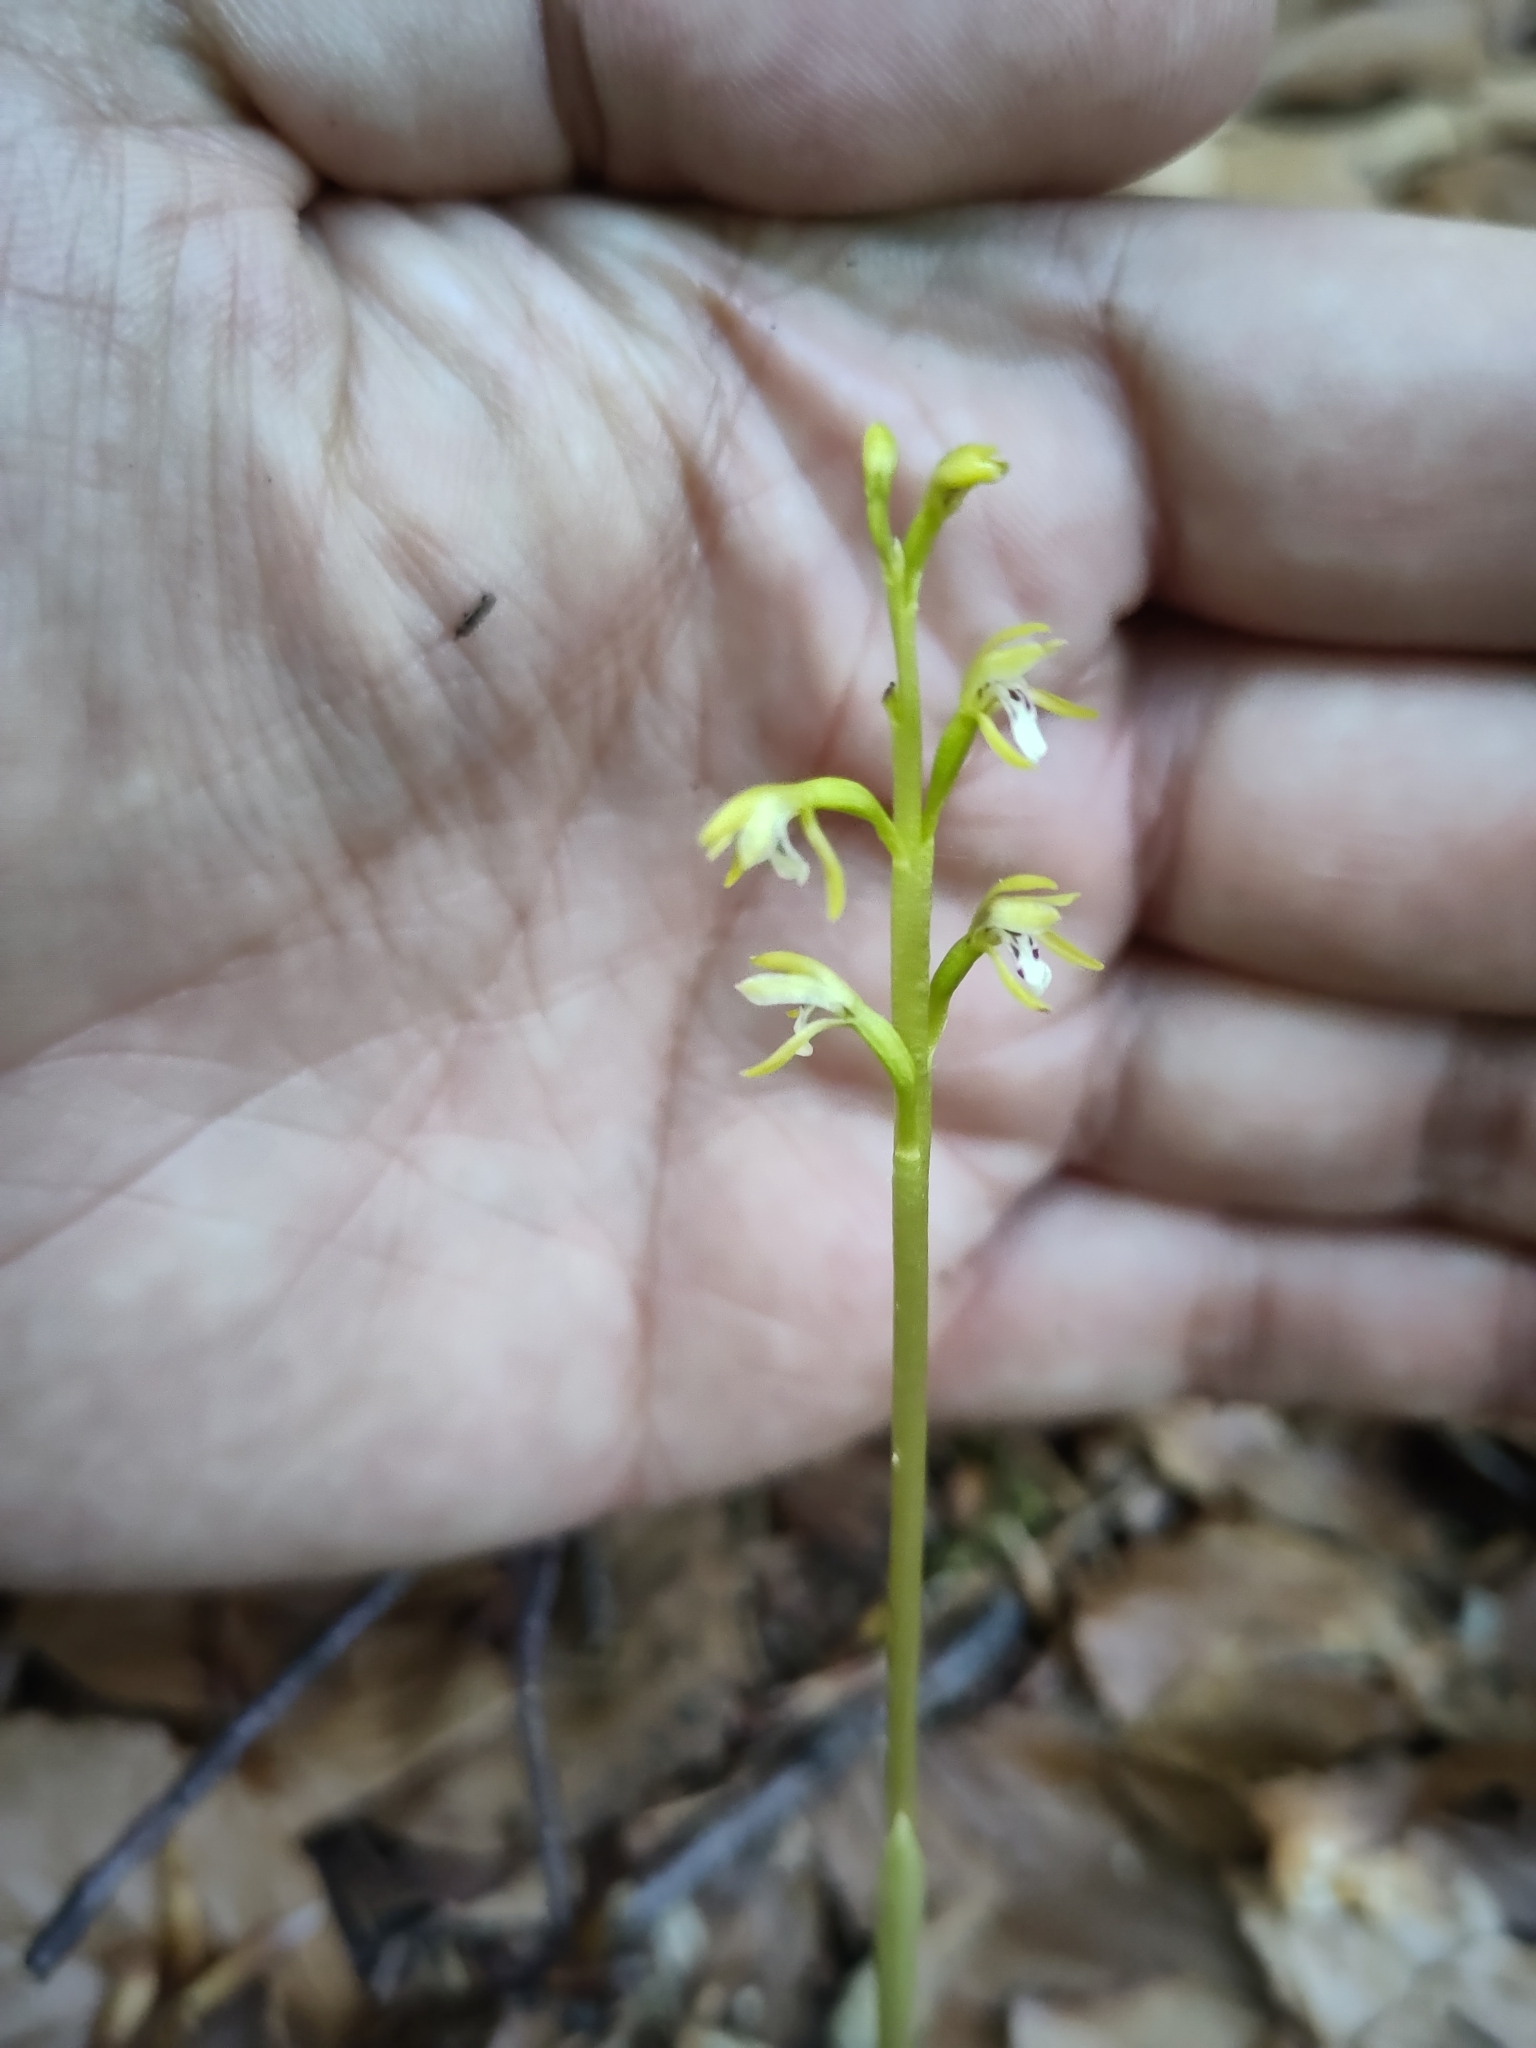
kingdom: Plantae
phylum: Tracheophyta
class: Liliopsida
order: Asparagales
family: Orchidaceae
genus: Corallorhiza
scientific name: Corallorhiza trifida
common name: Yellow coralroot
